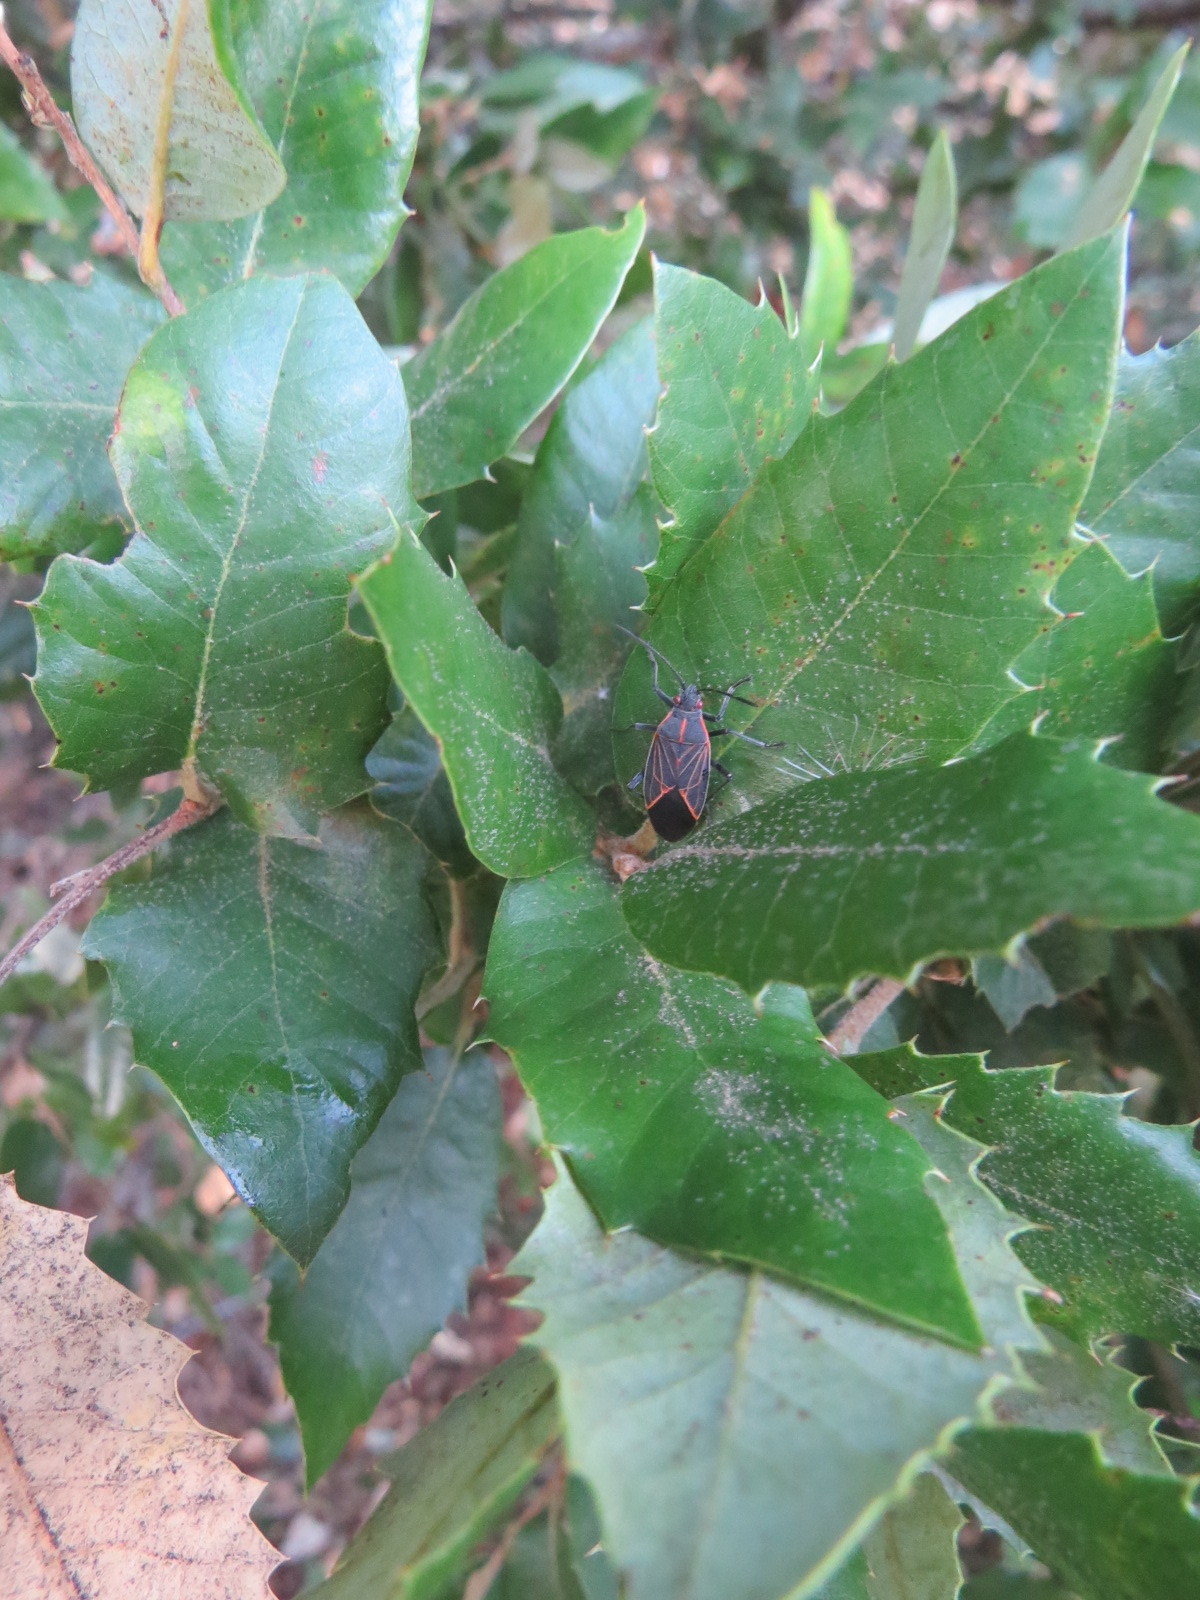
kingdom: Animalia
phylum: Arthropoda
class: Insecta
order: Hemiptera
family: Rhopalidae
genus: Boisea
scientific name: Boisea rubrolineata
